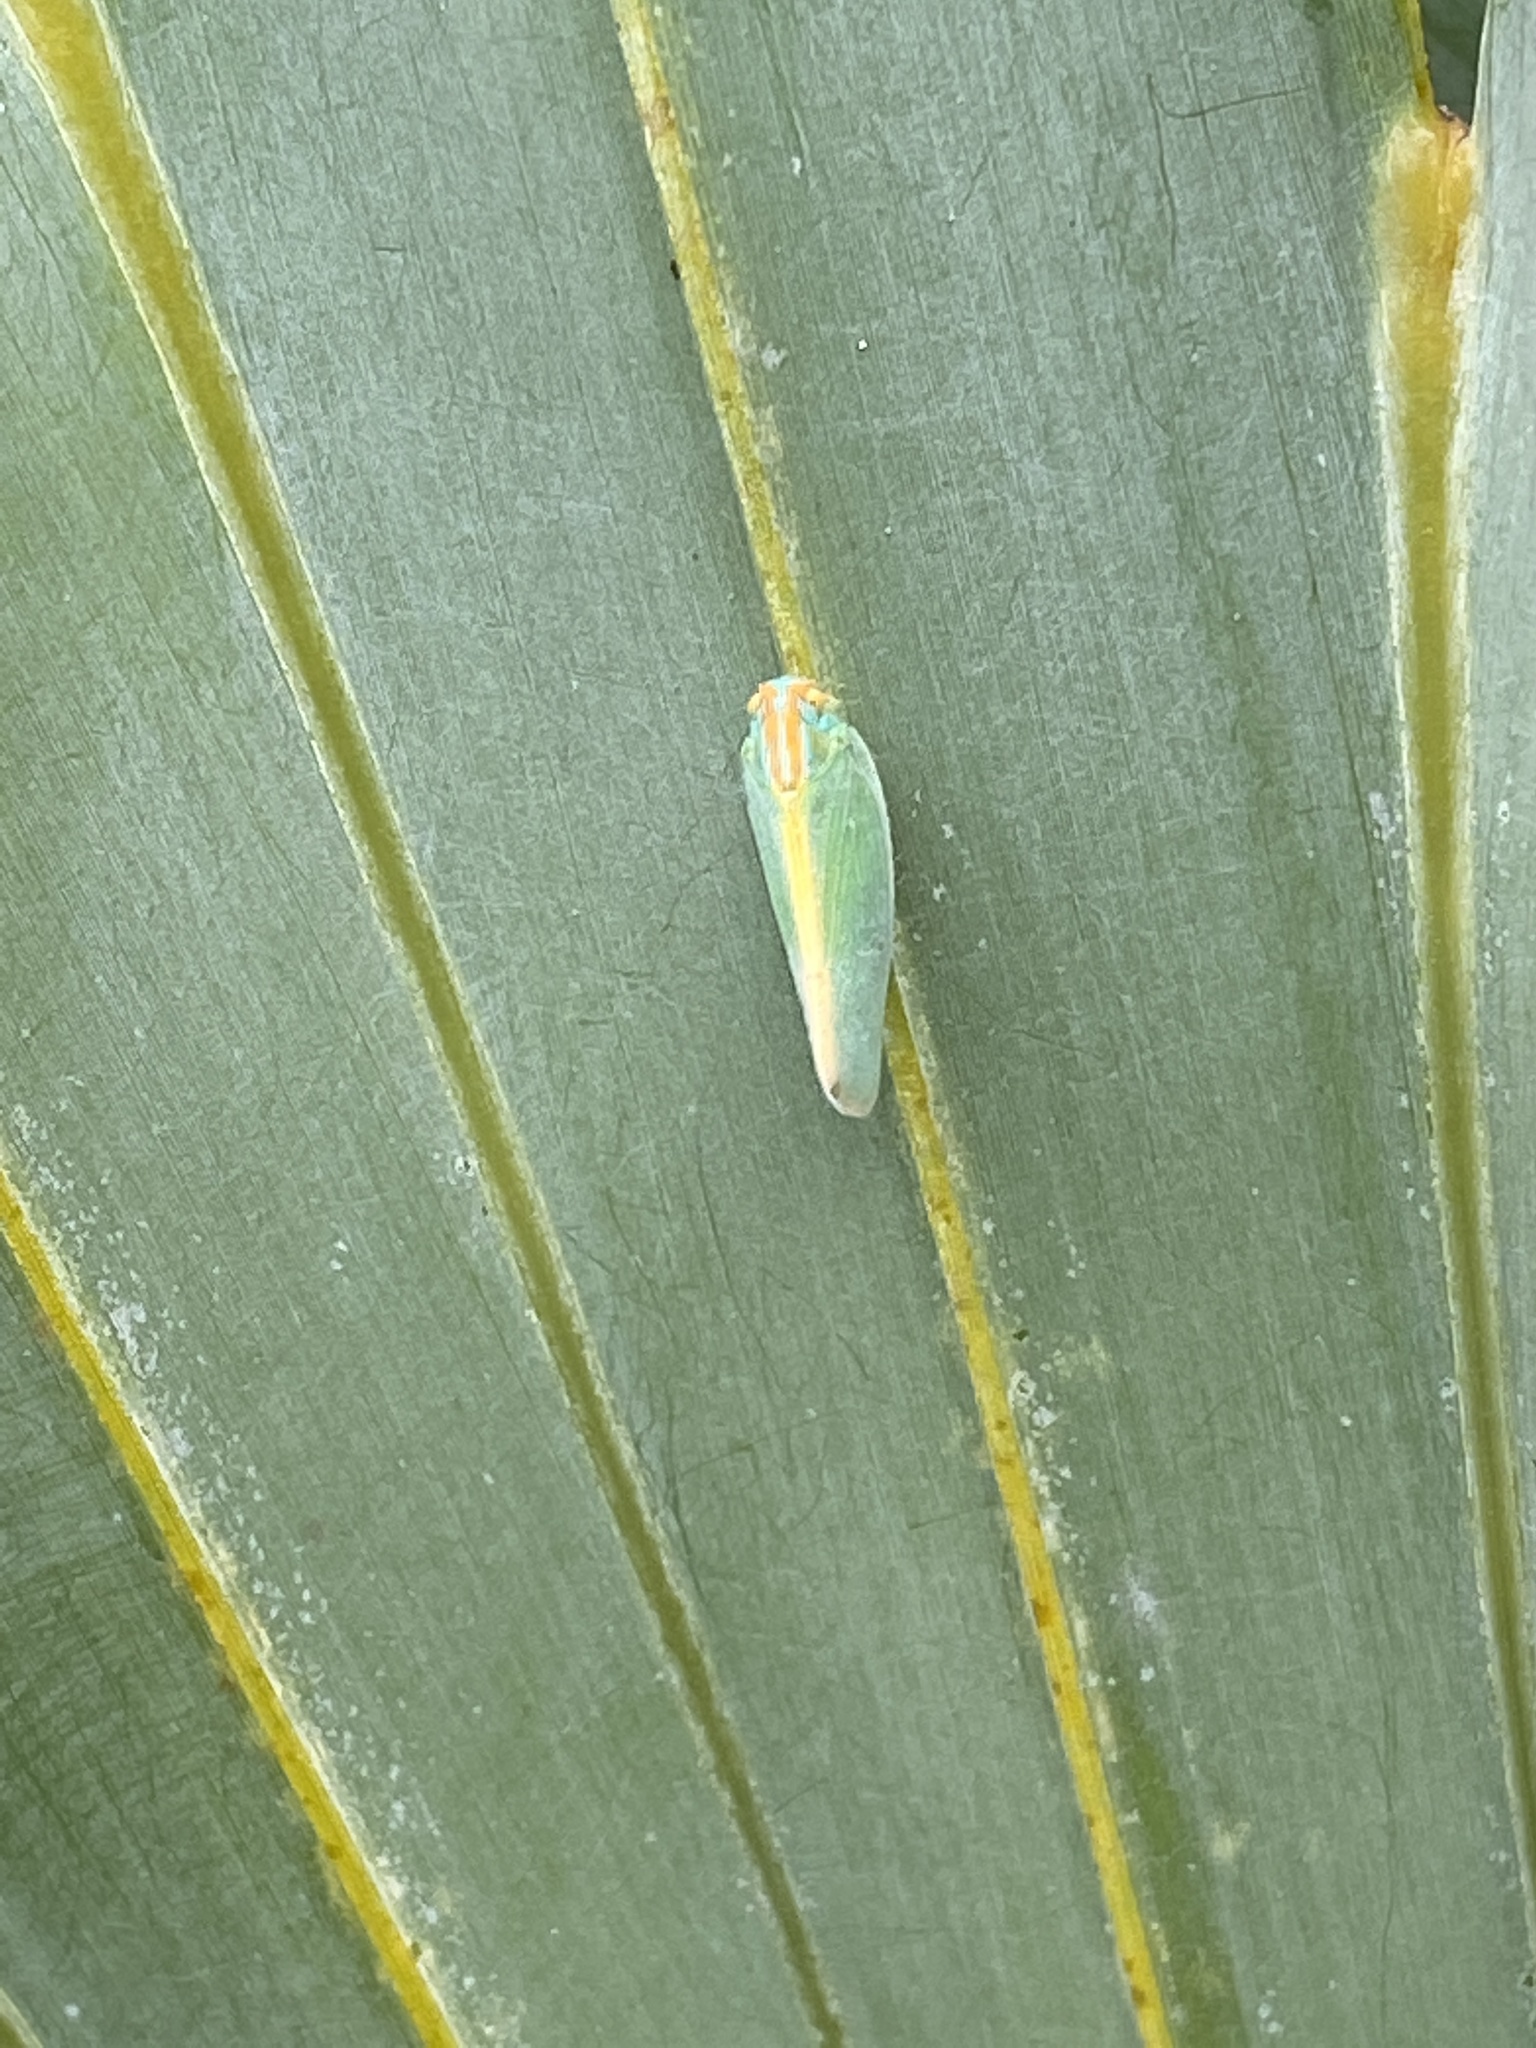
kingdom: Animalia
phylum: Arthropoda
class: Insecta
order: Hemiptera
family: Flatidae
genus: Ormenaria
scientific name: Ormenaria rufifascia
